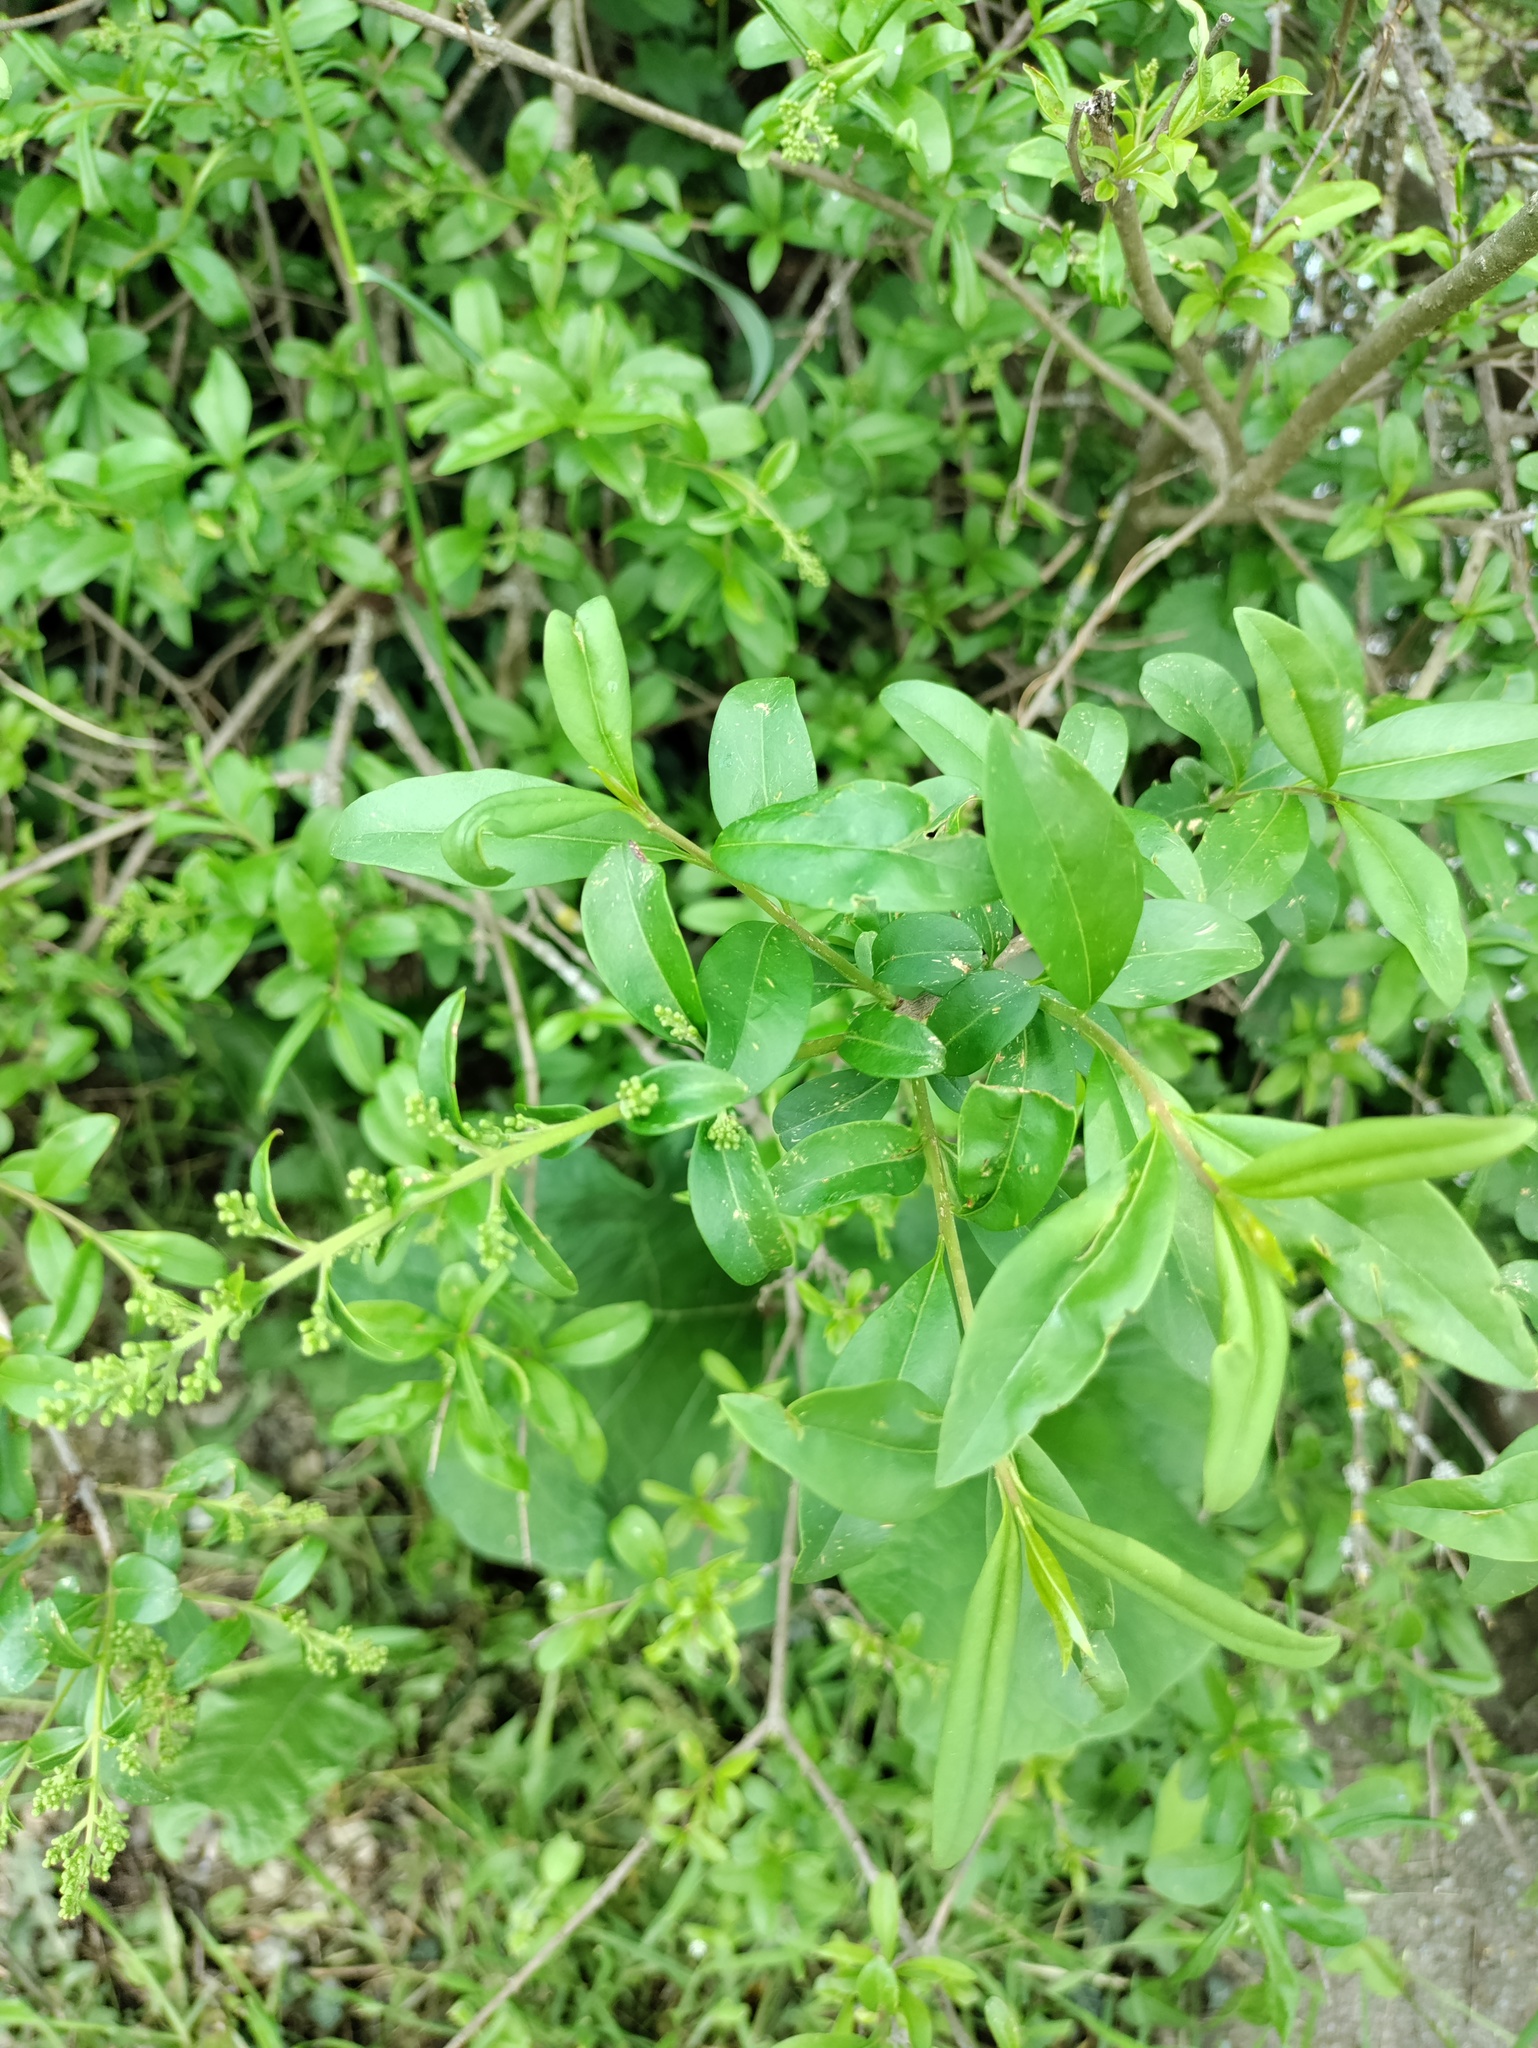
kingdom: Plantae
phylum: Tracheophyta
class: Magnoliopsida
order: Lamiales
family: Oleaceae
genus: Ligustrum
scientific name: Ligustrum vulgare
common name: Wild privet
